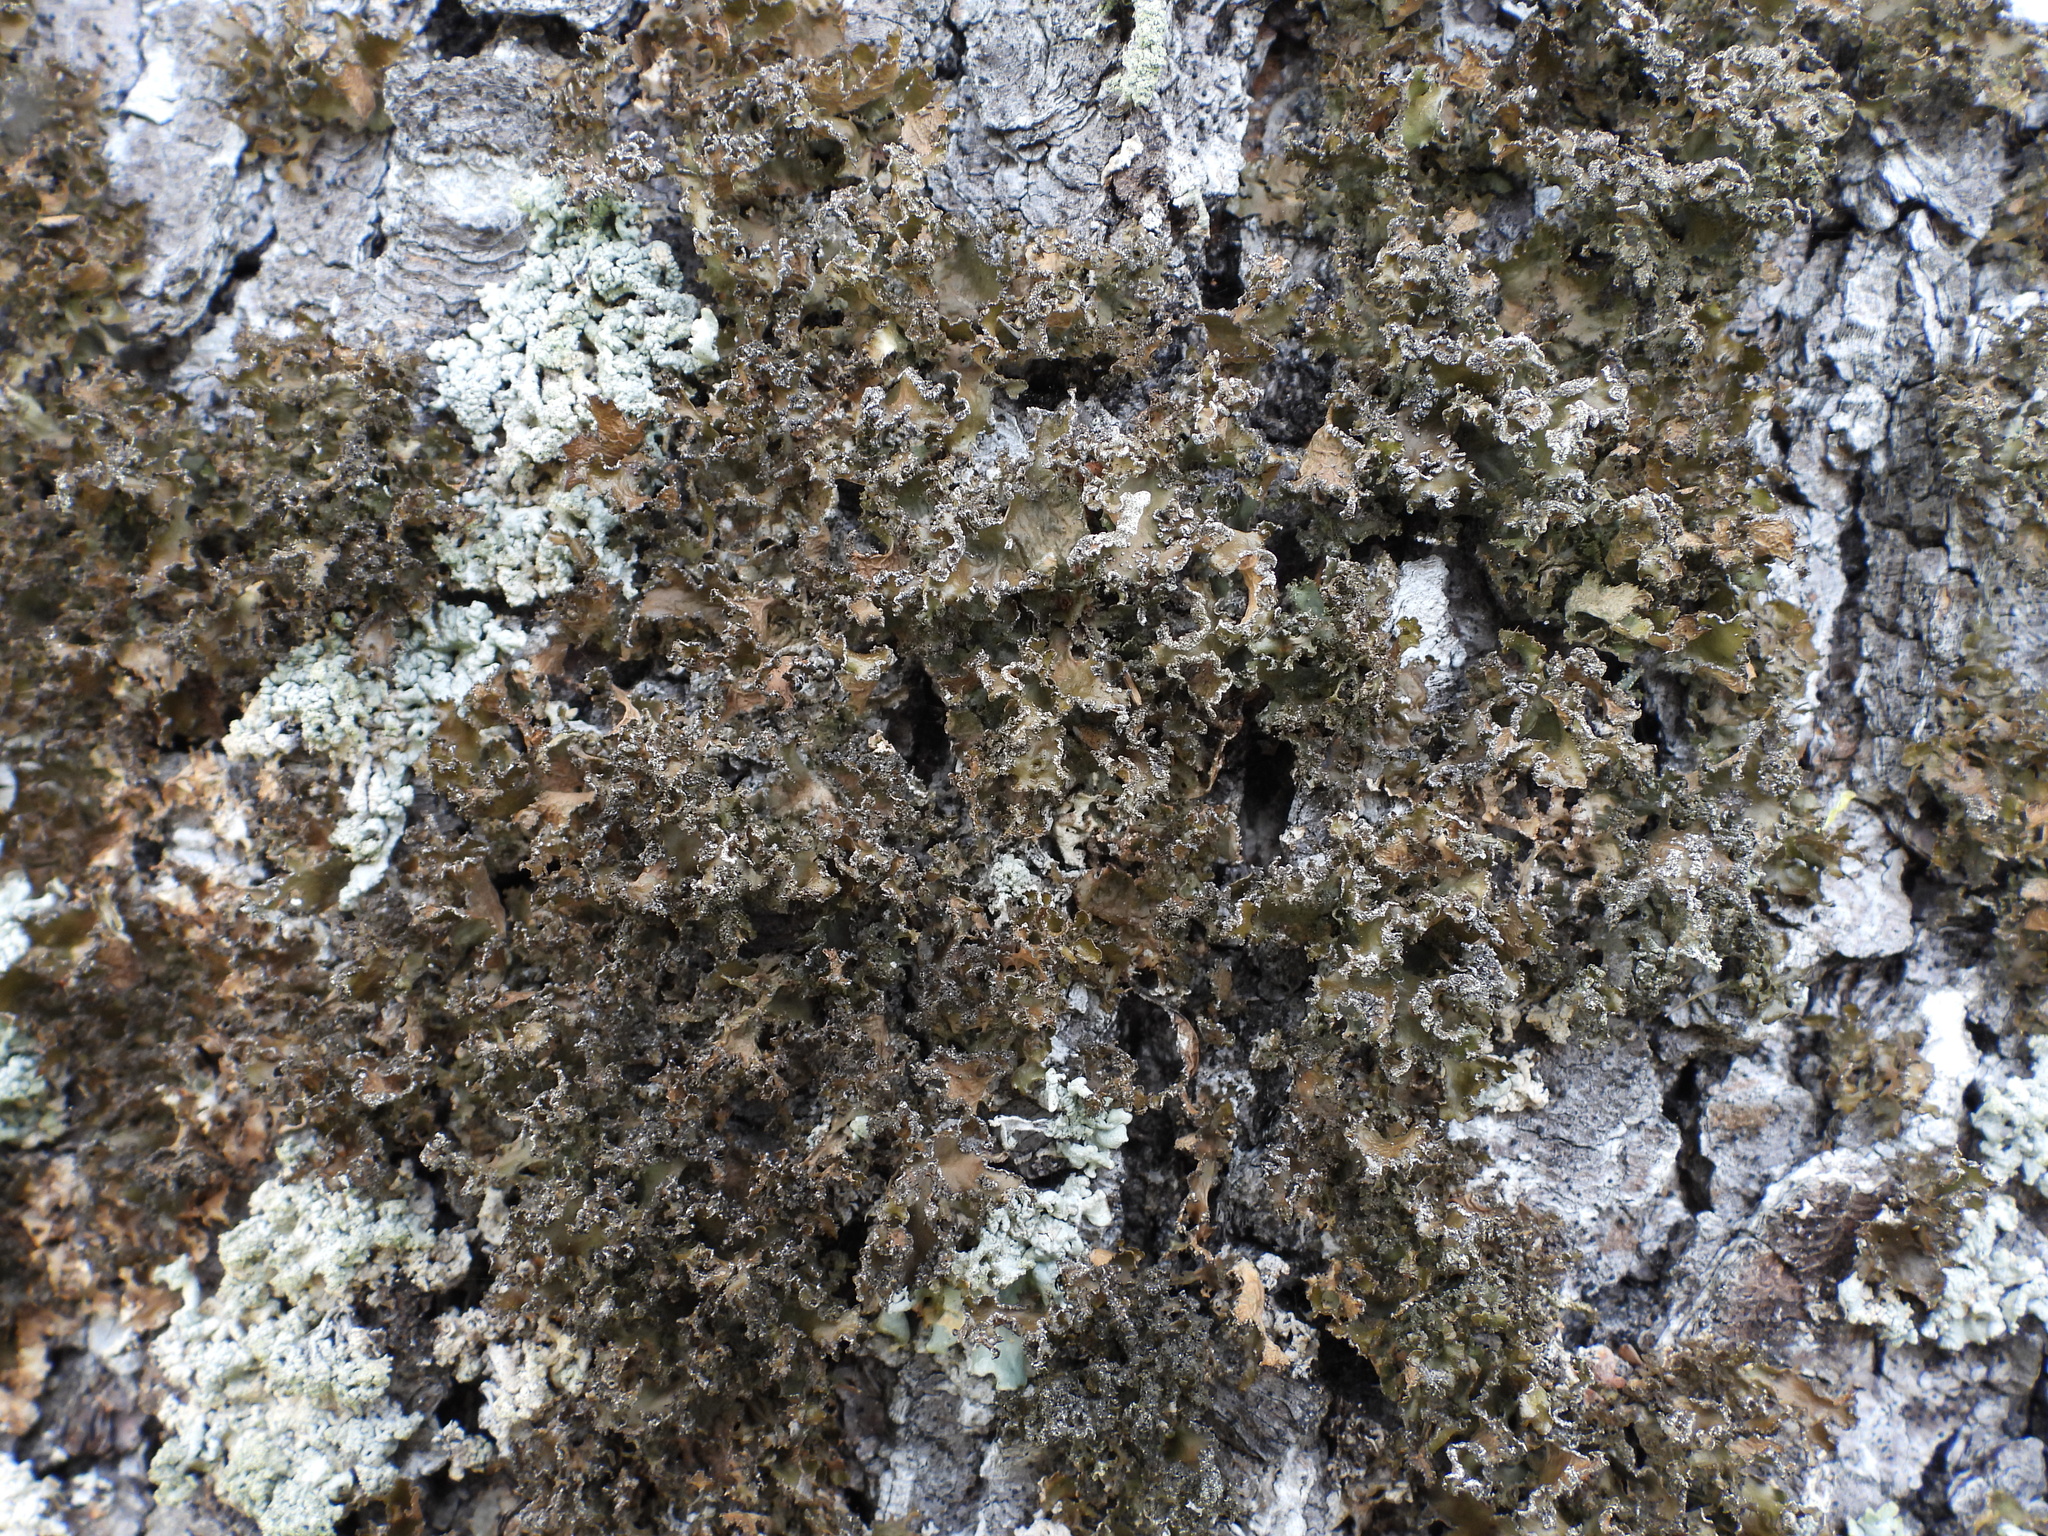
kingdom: Fungi
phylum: Ascomycota
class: Lecanoromycetes
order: Lecanorales
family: Parmeliaceae
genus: Nephromopsis
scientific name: Nephromopsis chlorophylla
